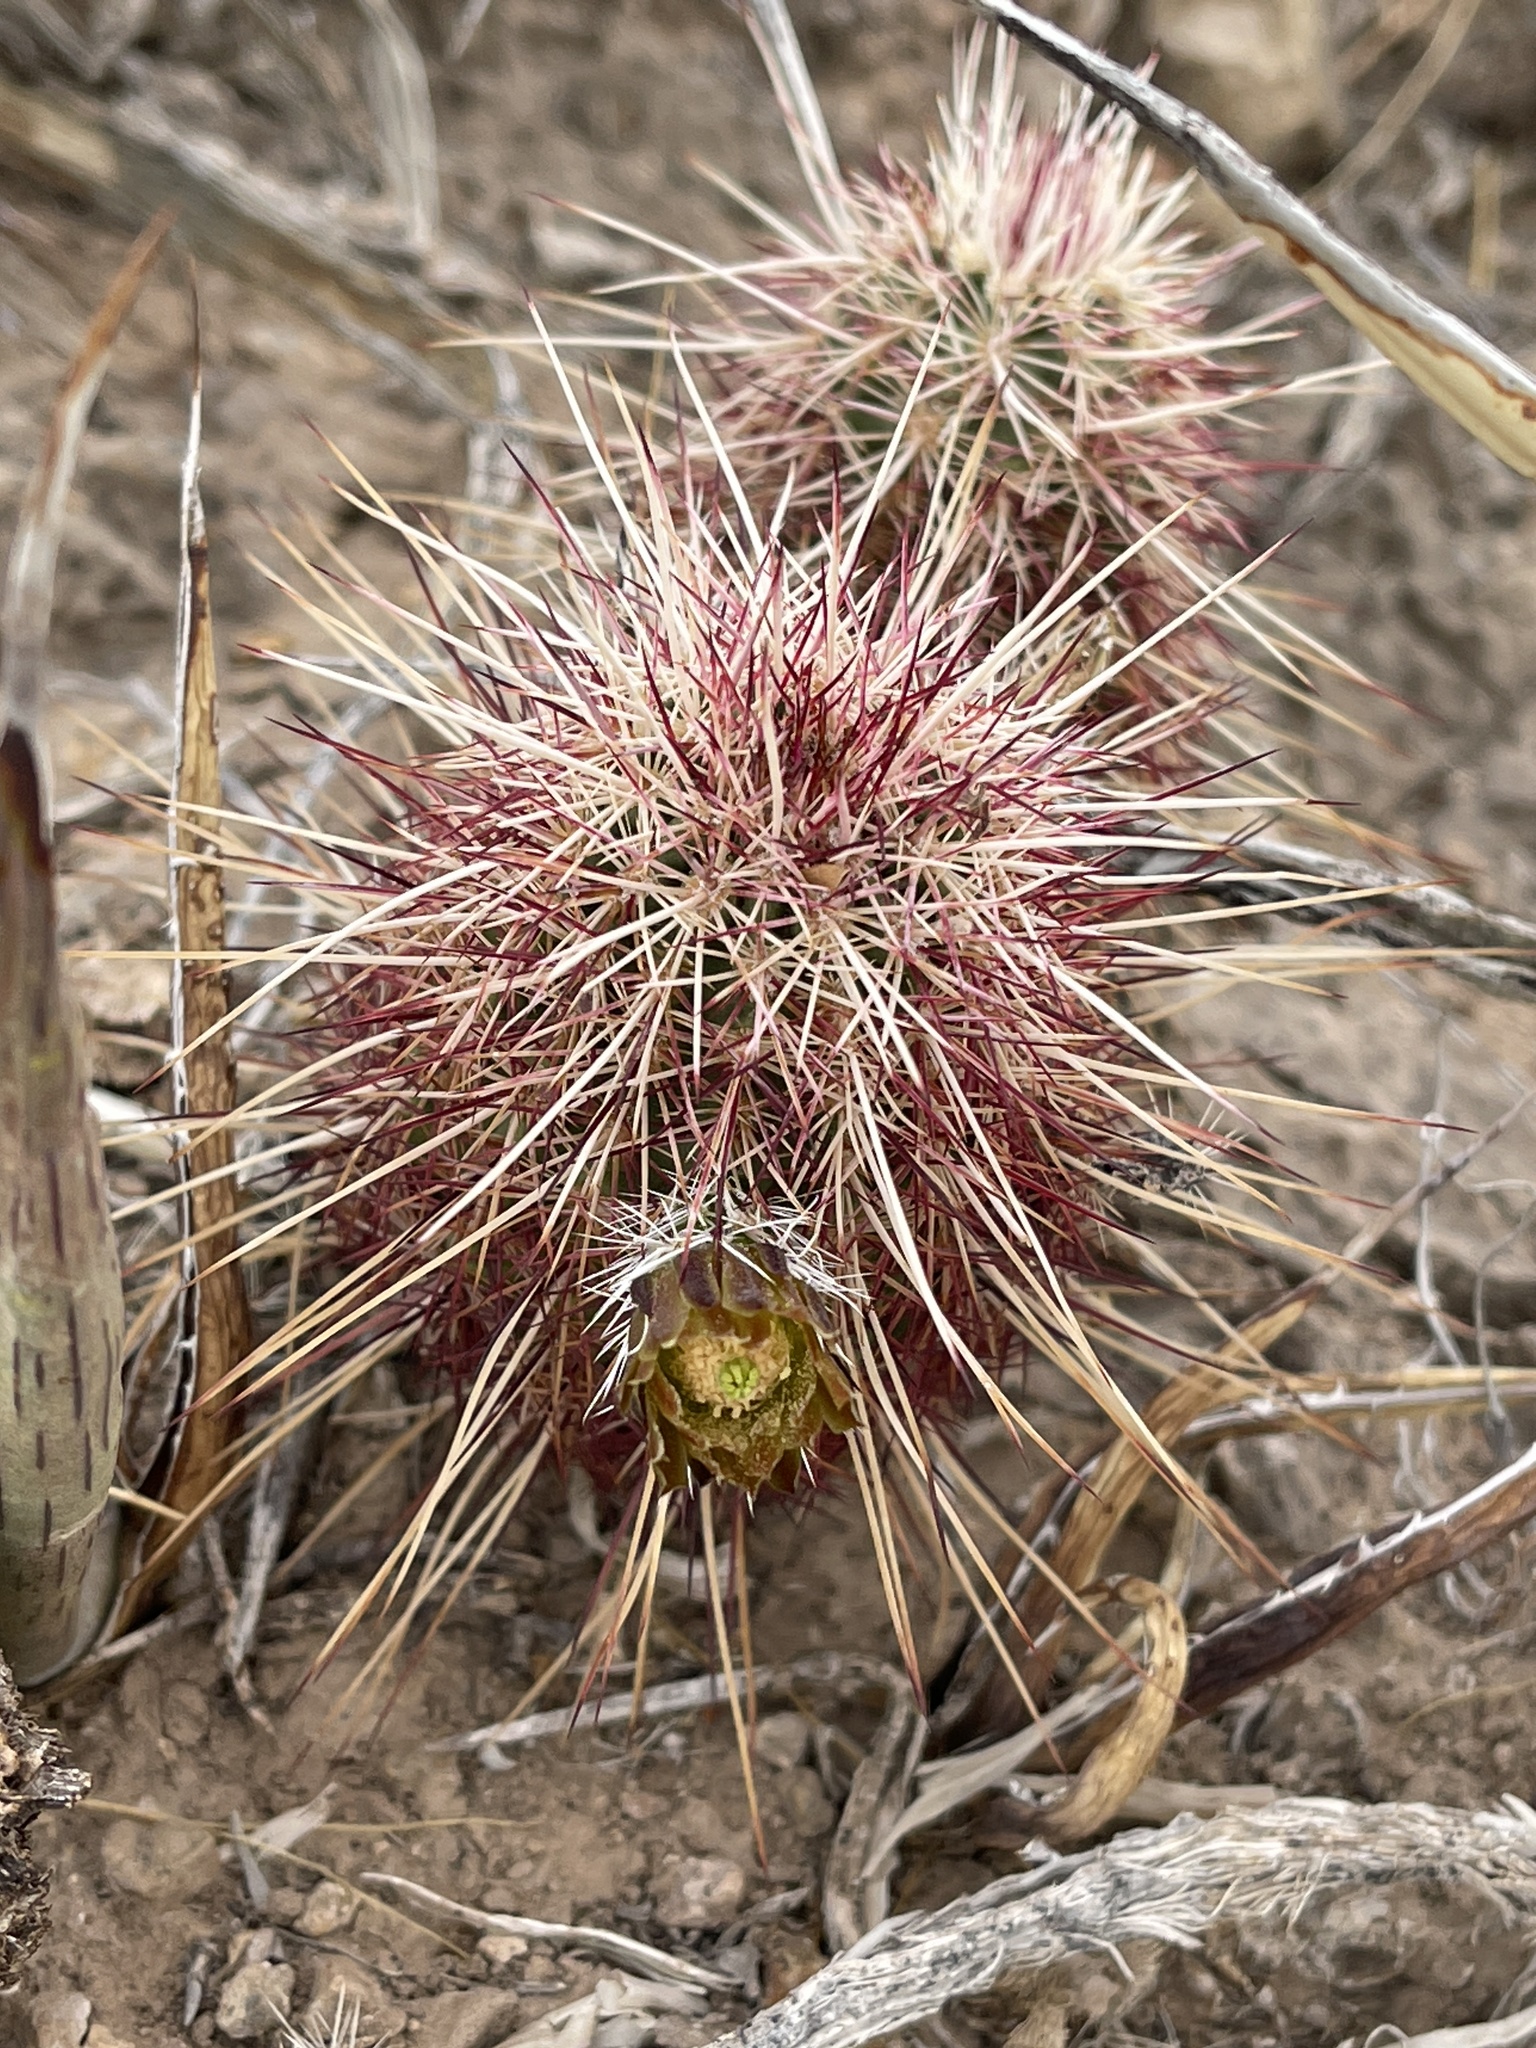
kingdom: Plantae
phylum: Tracheophyta
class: Magnoliopsida
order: Caryophyllales
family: Cactaceae
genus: Echinocereus
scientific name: Echinocereus viridiflorus
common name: Nylon hedgehog cactus
